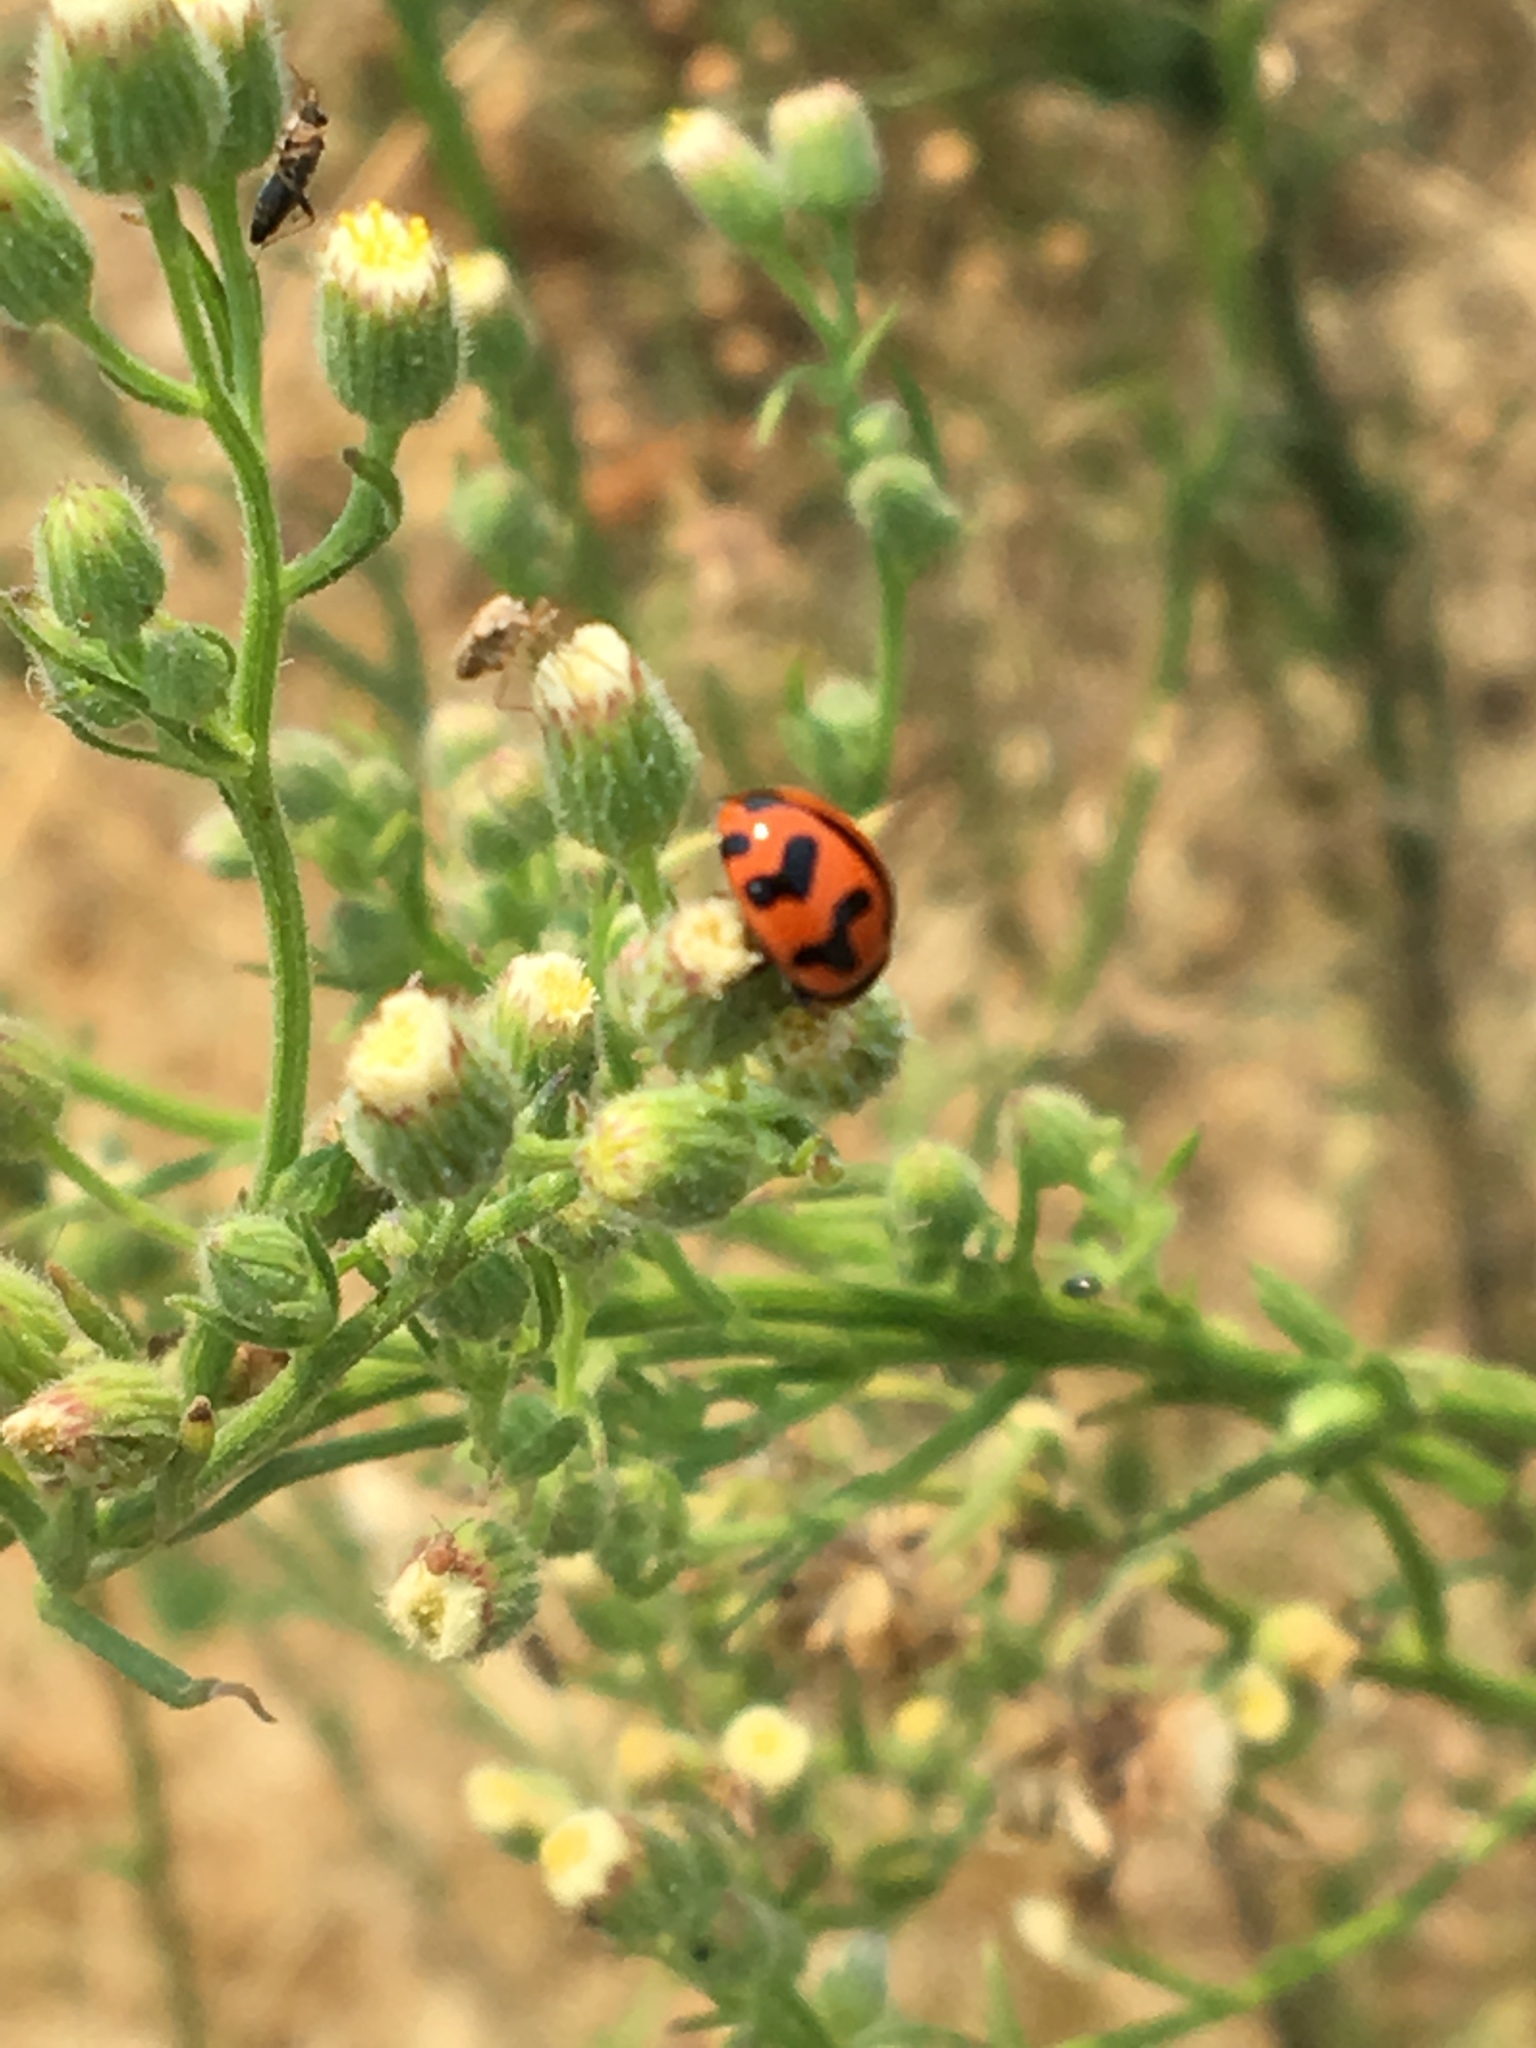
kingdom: Animalia
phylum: Arthropoda
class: Insecta
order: Coleoptera
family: Coccinellidae
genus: Coccinella
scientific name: Coccinella transversalis
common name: Transverse lady beetle
